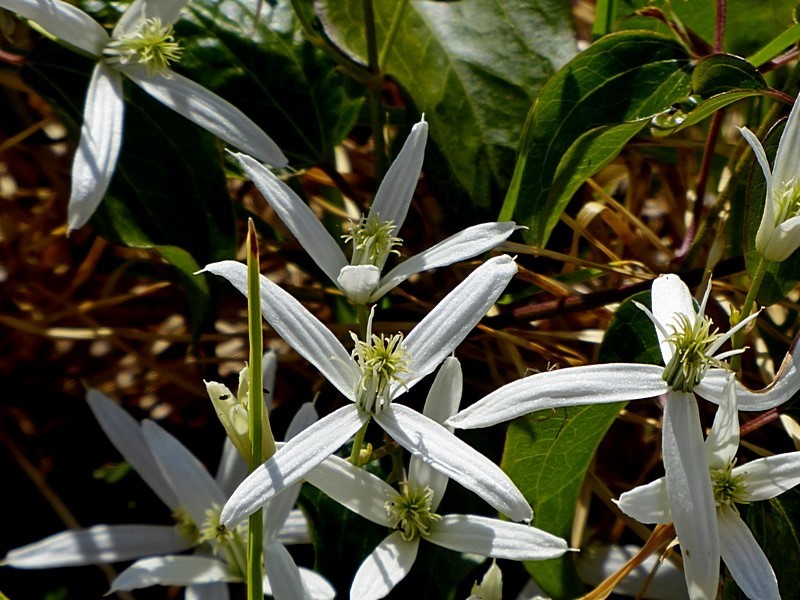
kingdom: Plantae
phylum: Tracheophyta
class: Magnoliopsida
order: Ranunculales
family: Ranunculaceae
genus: Clematis
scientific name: Clematis glycinoides
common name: Forest clematis
